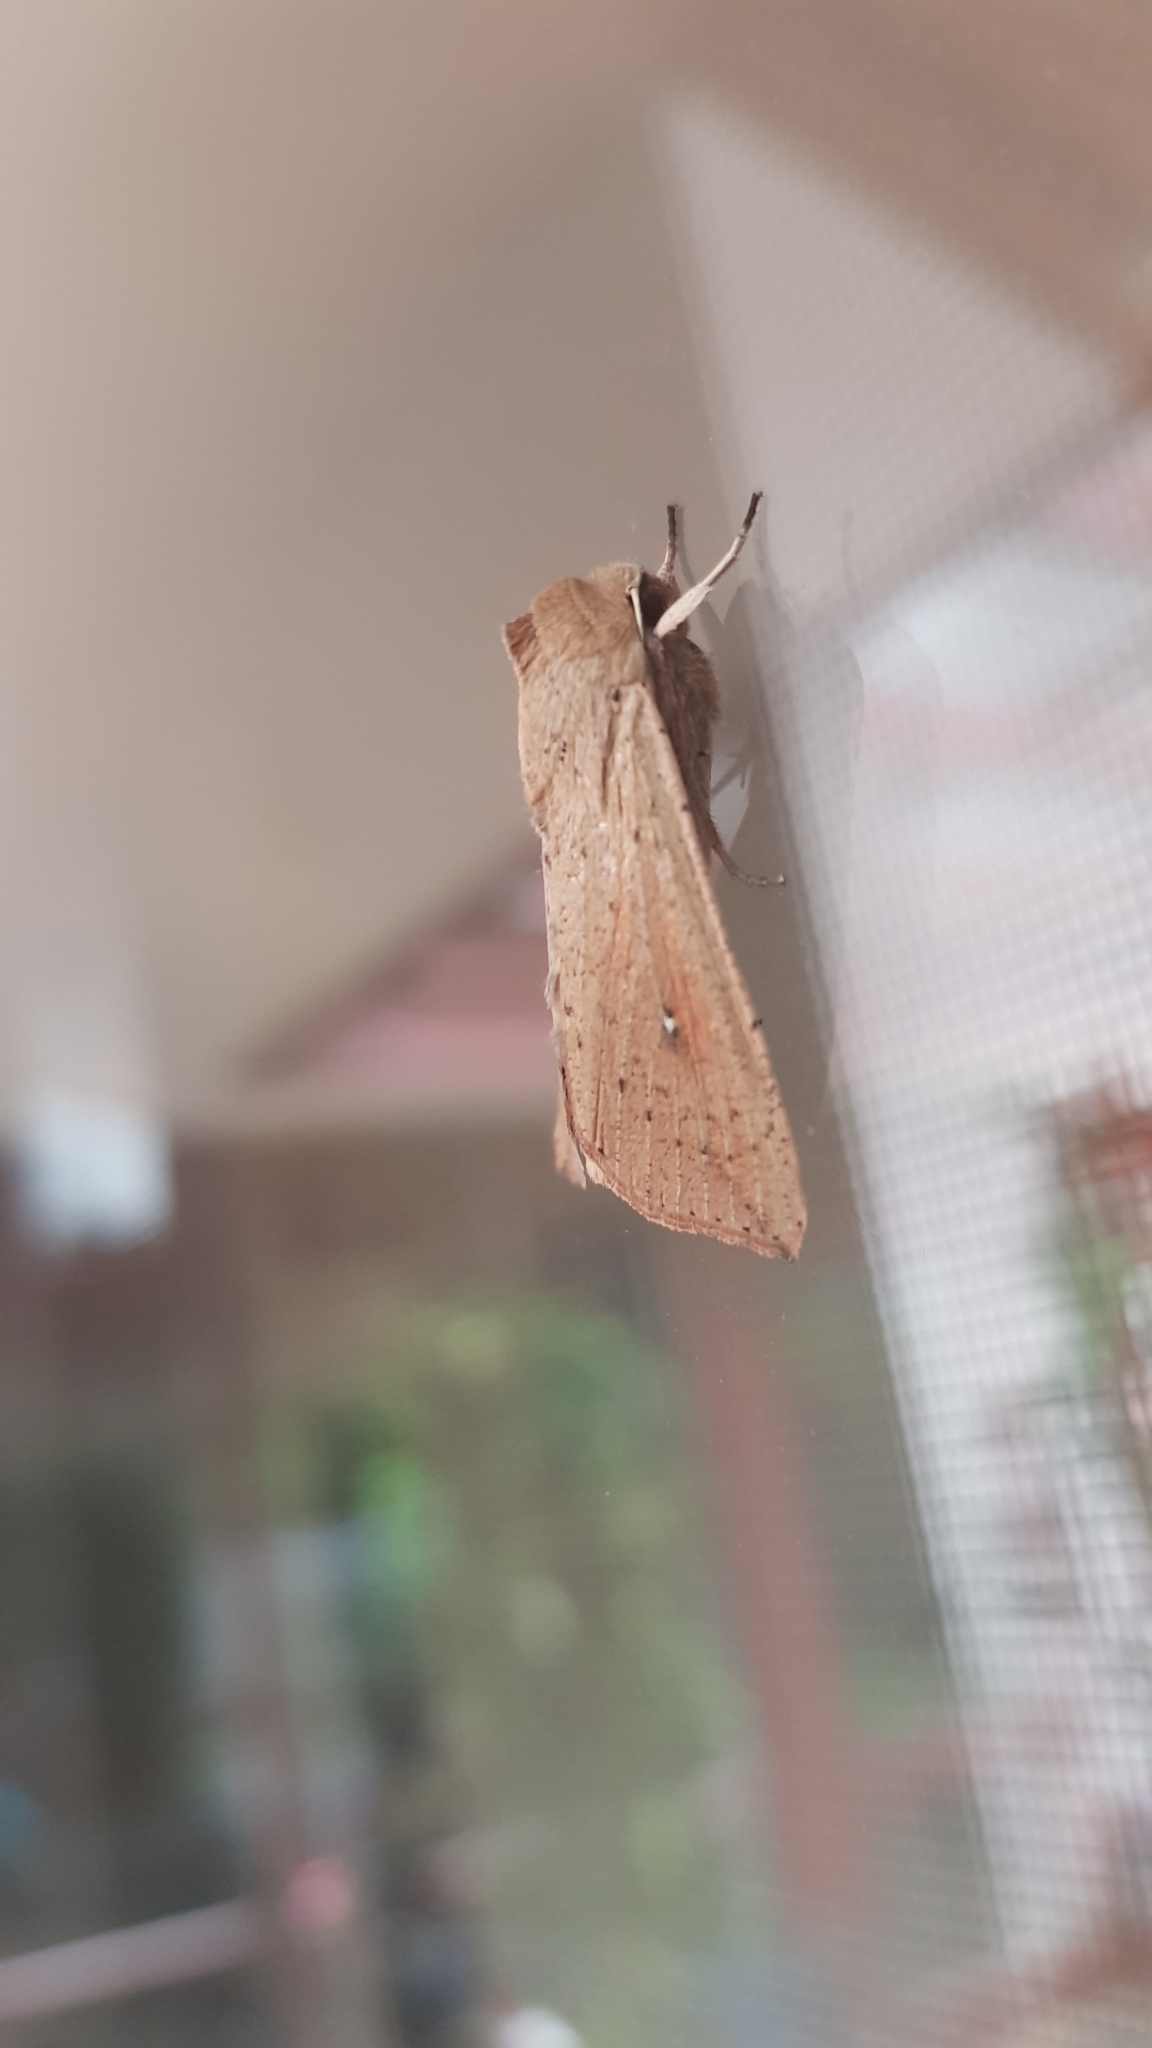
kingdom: Animalia
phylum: Arthropoda
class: Insecta
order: Lepidoptera
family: Noctuidae
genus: Mythimna
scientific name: Mythimna convecta
